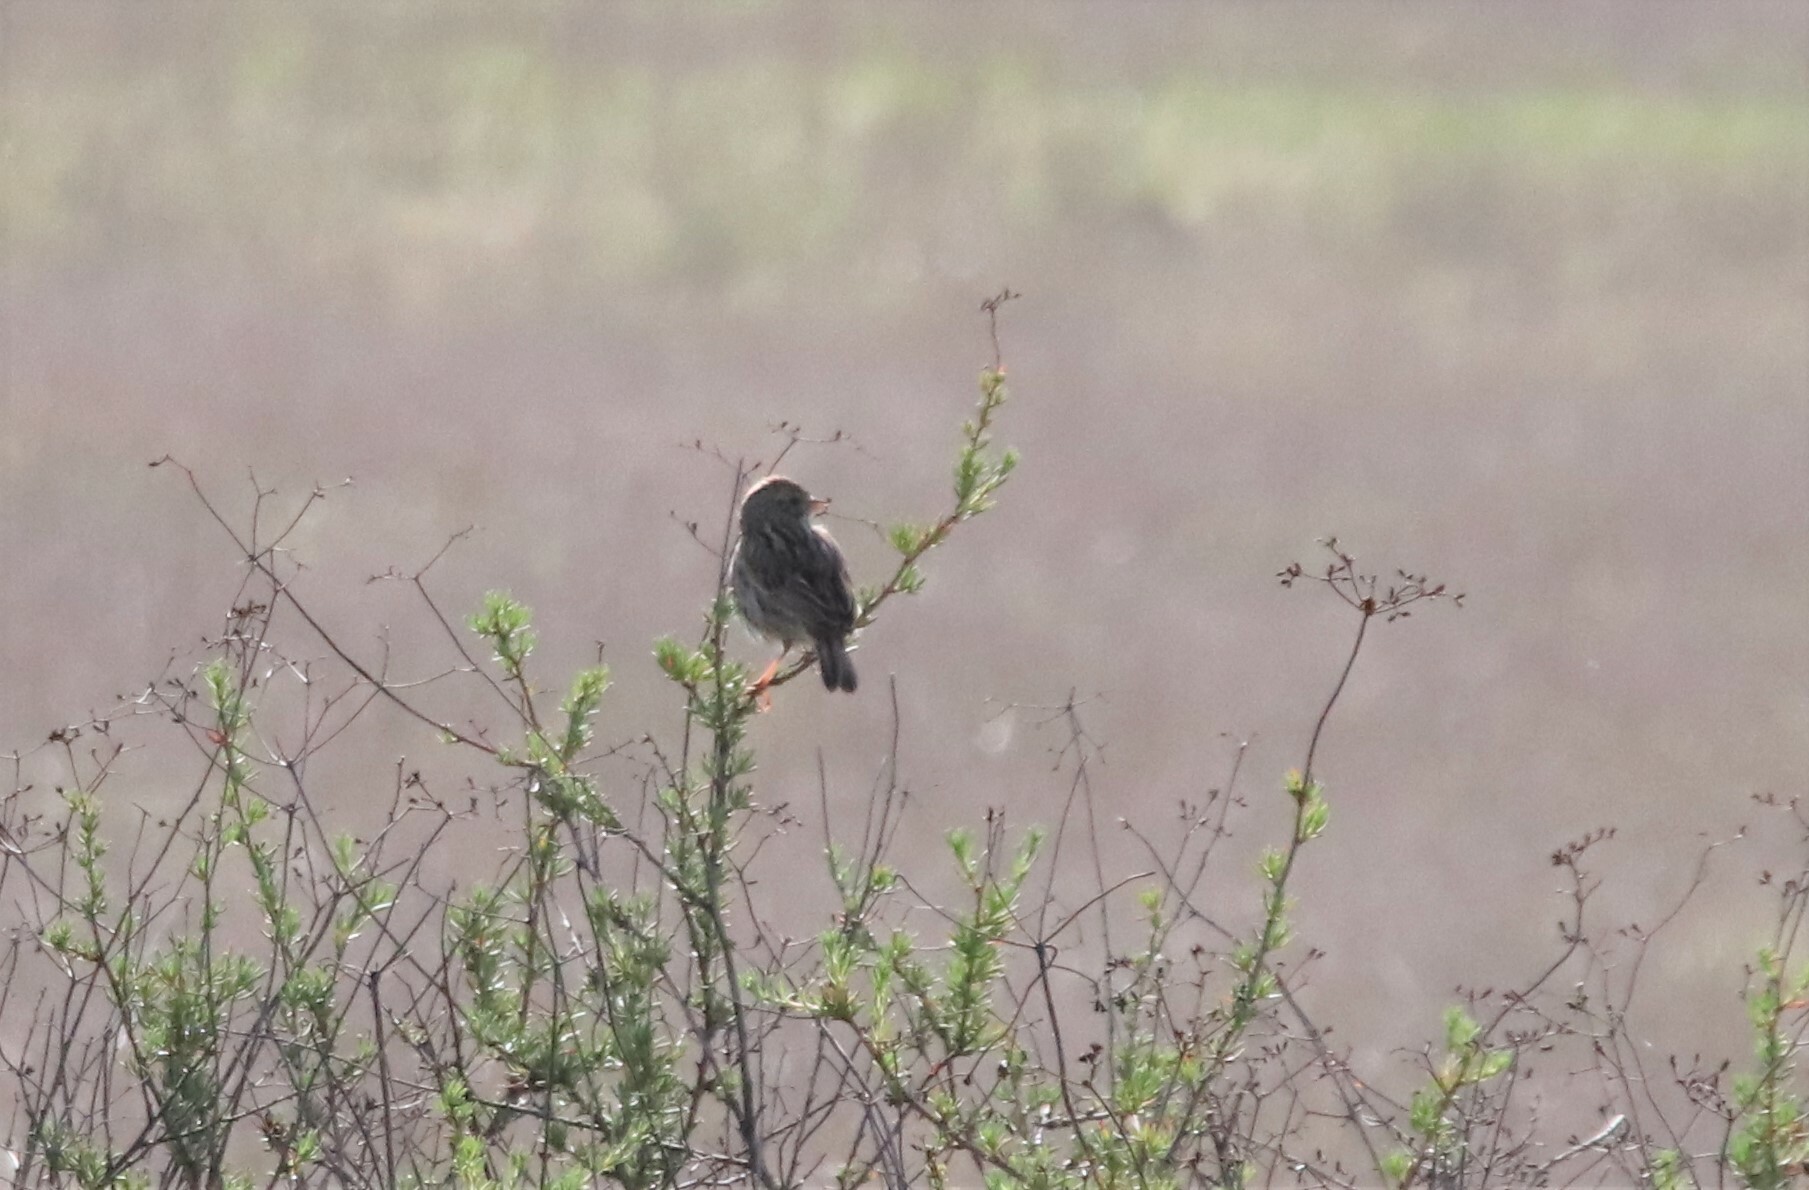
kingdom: Animalia
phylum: Chordata
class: Aves
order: Passeriformes
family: Passerellidae
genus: Passerculus
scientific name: Passerculus sandwichensis
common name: Savannah sparrow
